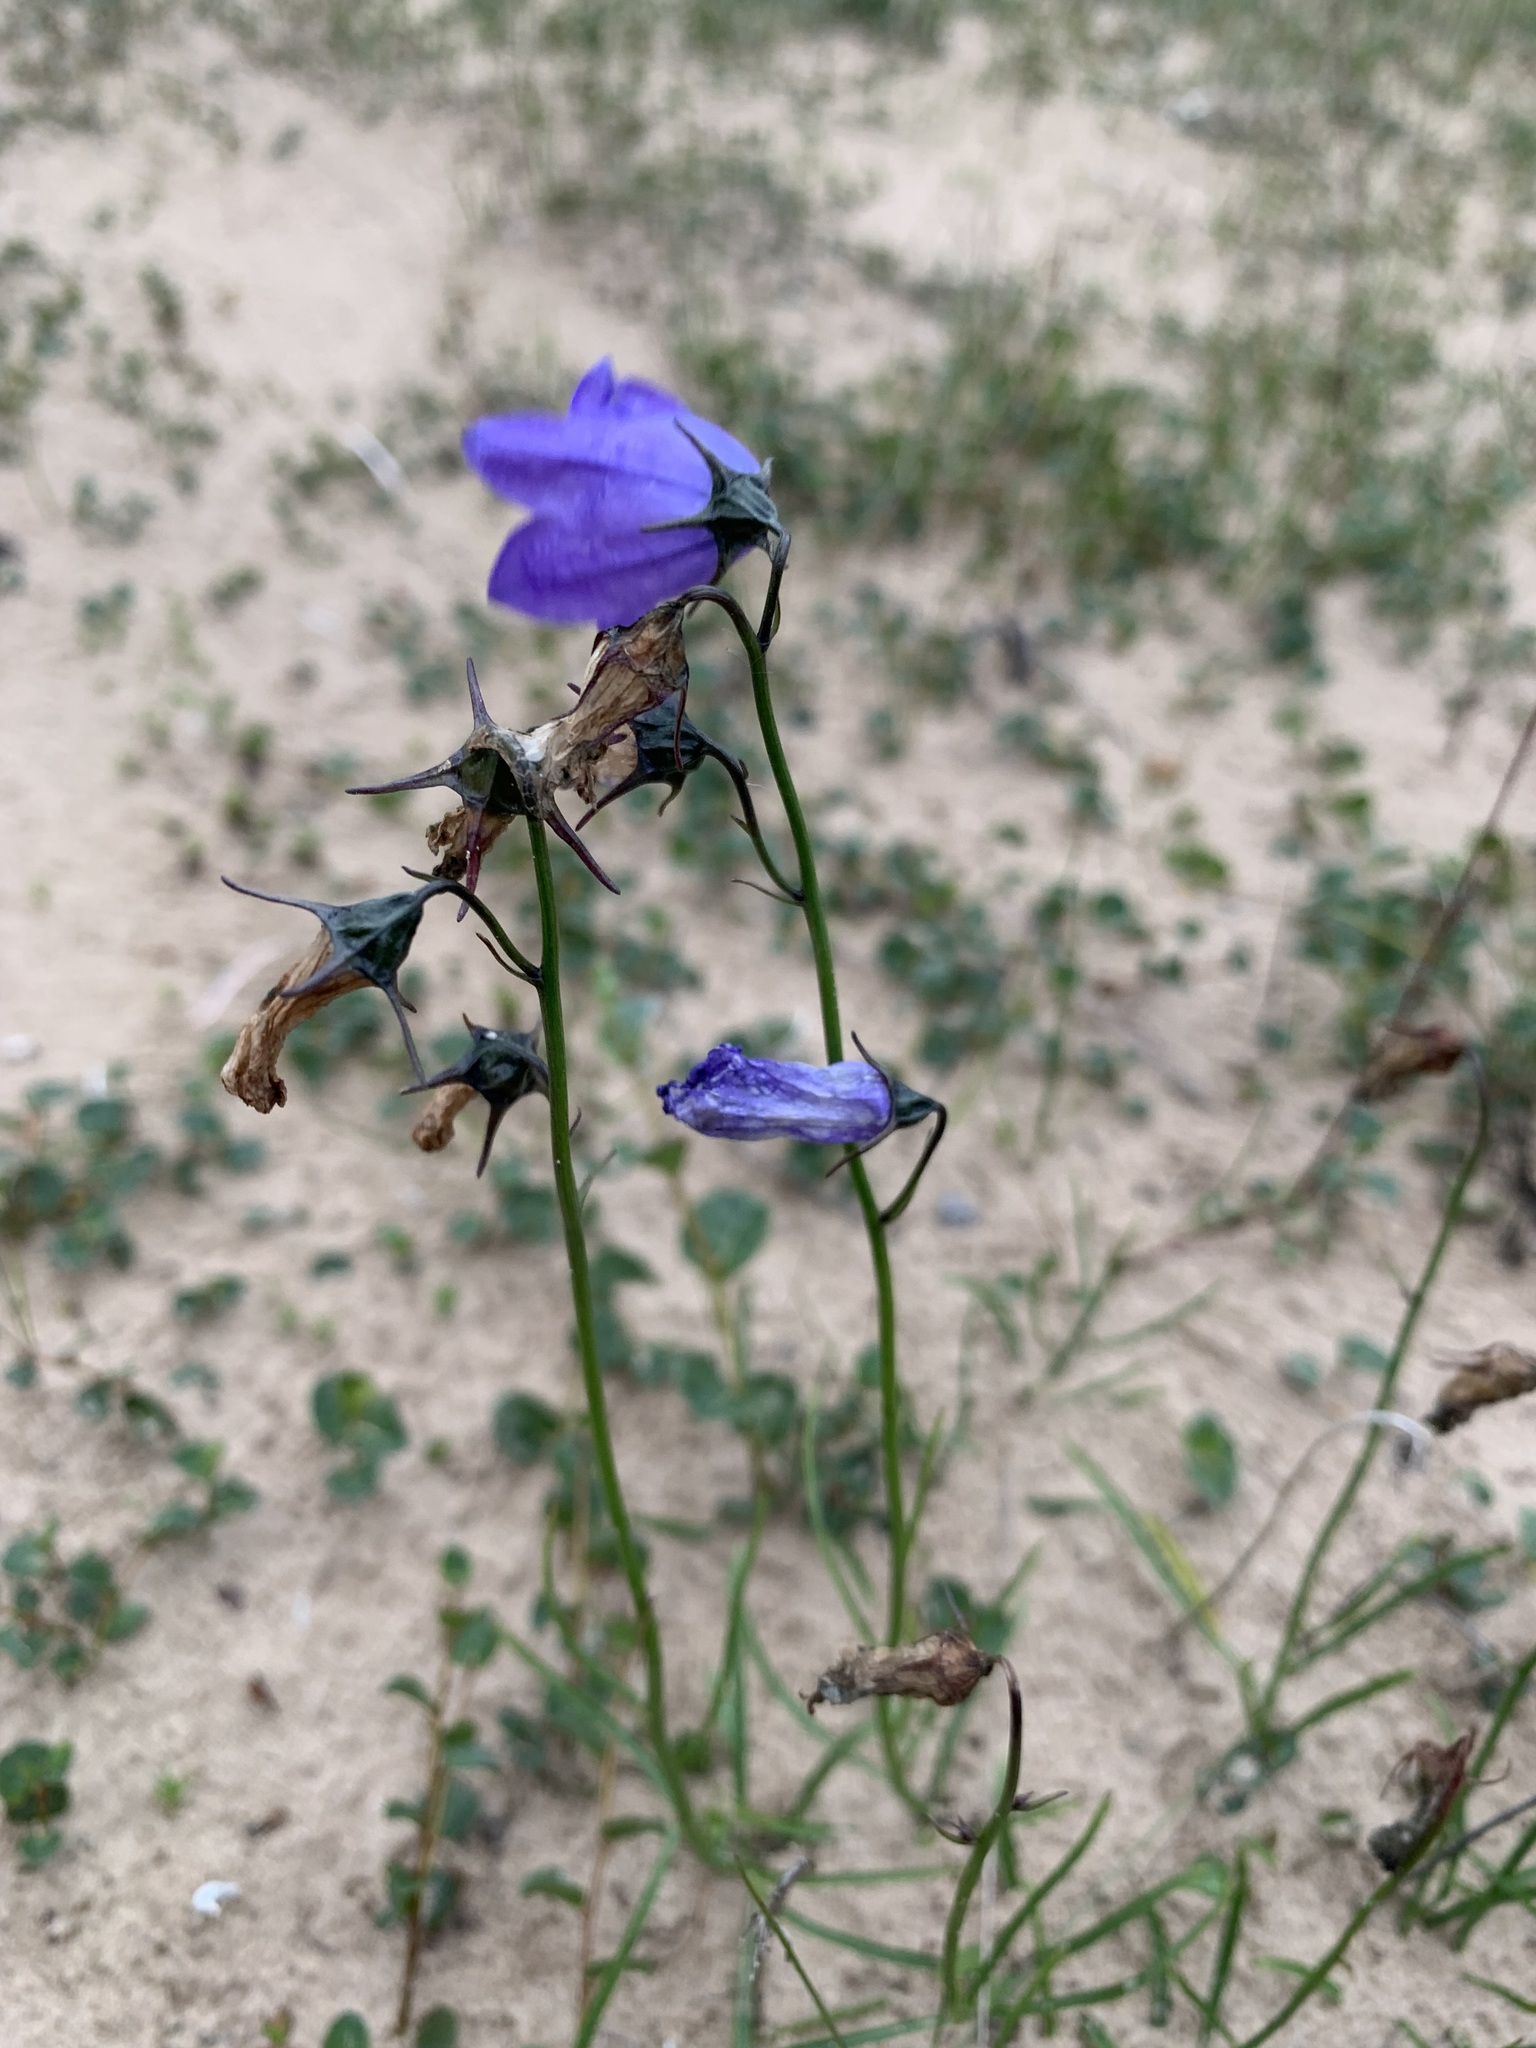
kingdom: Plantae
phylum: Tracheophyta
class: Magnoliopsida
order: Asterales
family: Campanulaceae
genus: Campanula
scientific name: Campanula rotundifolia
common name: Harebell
